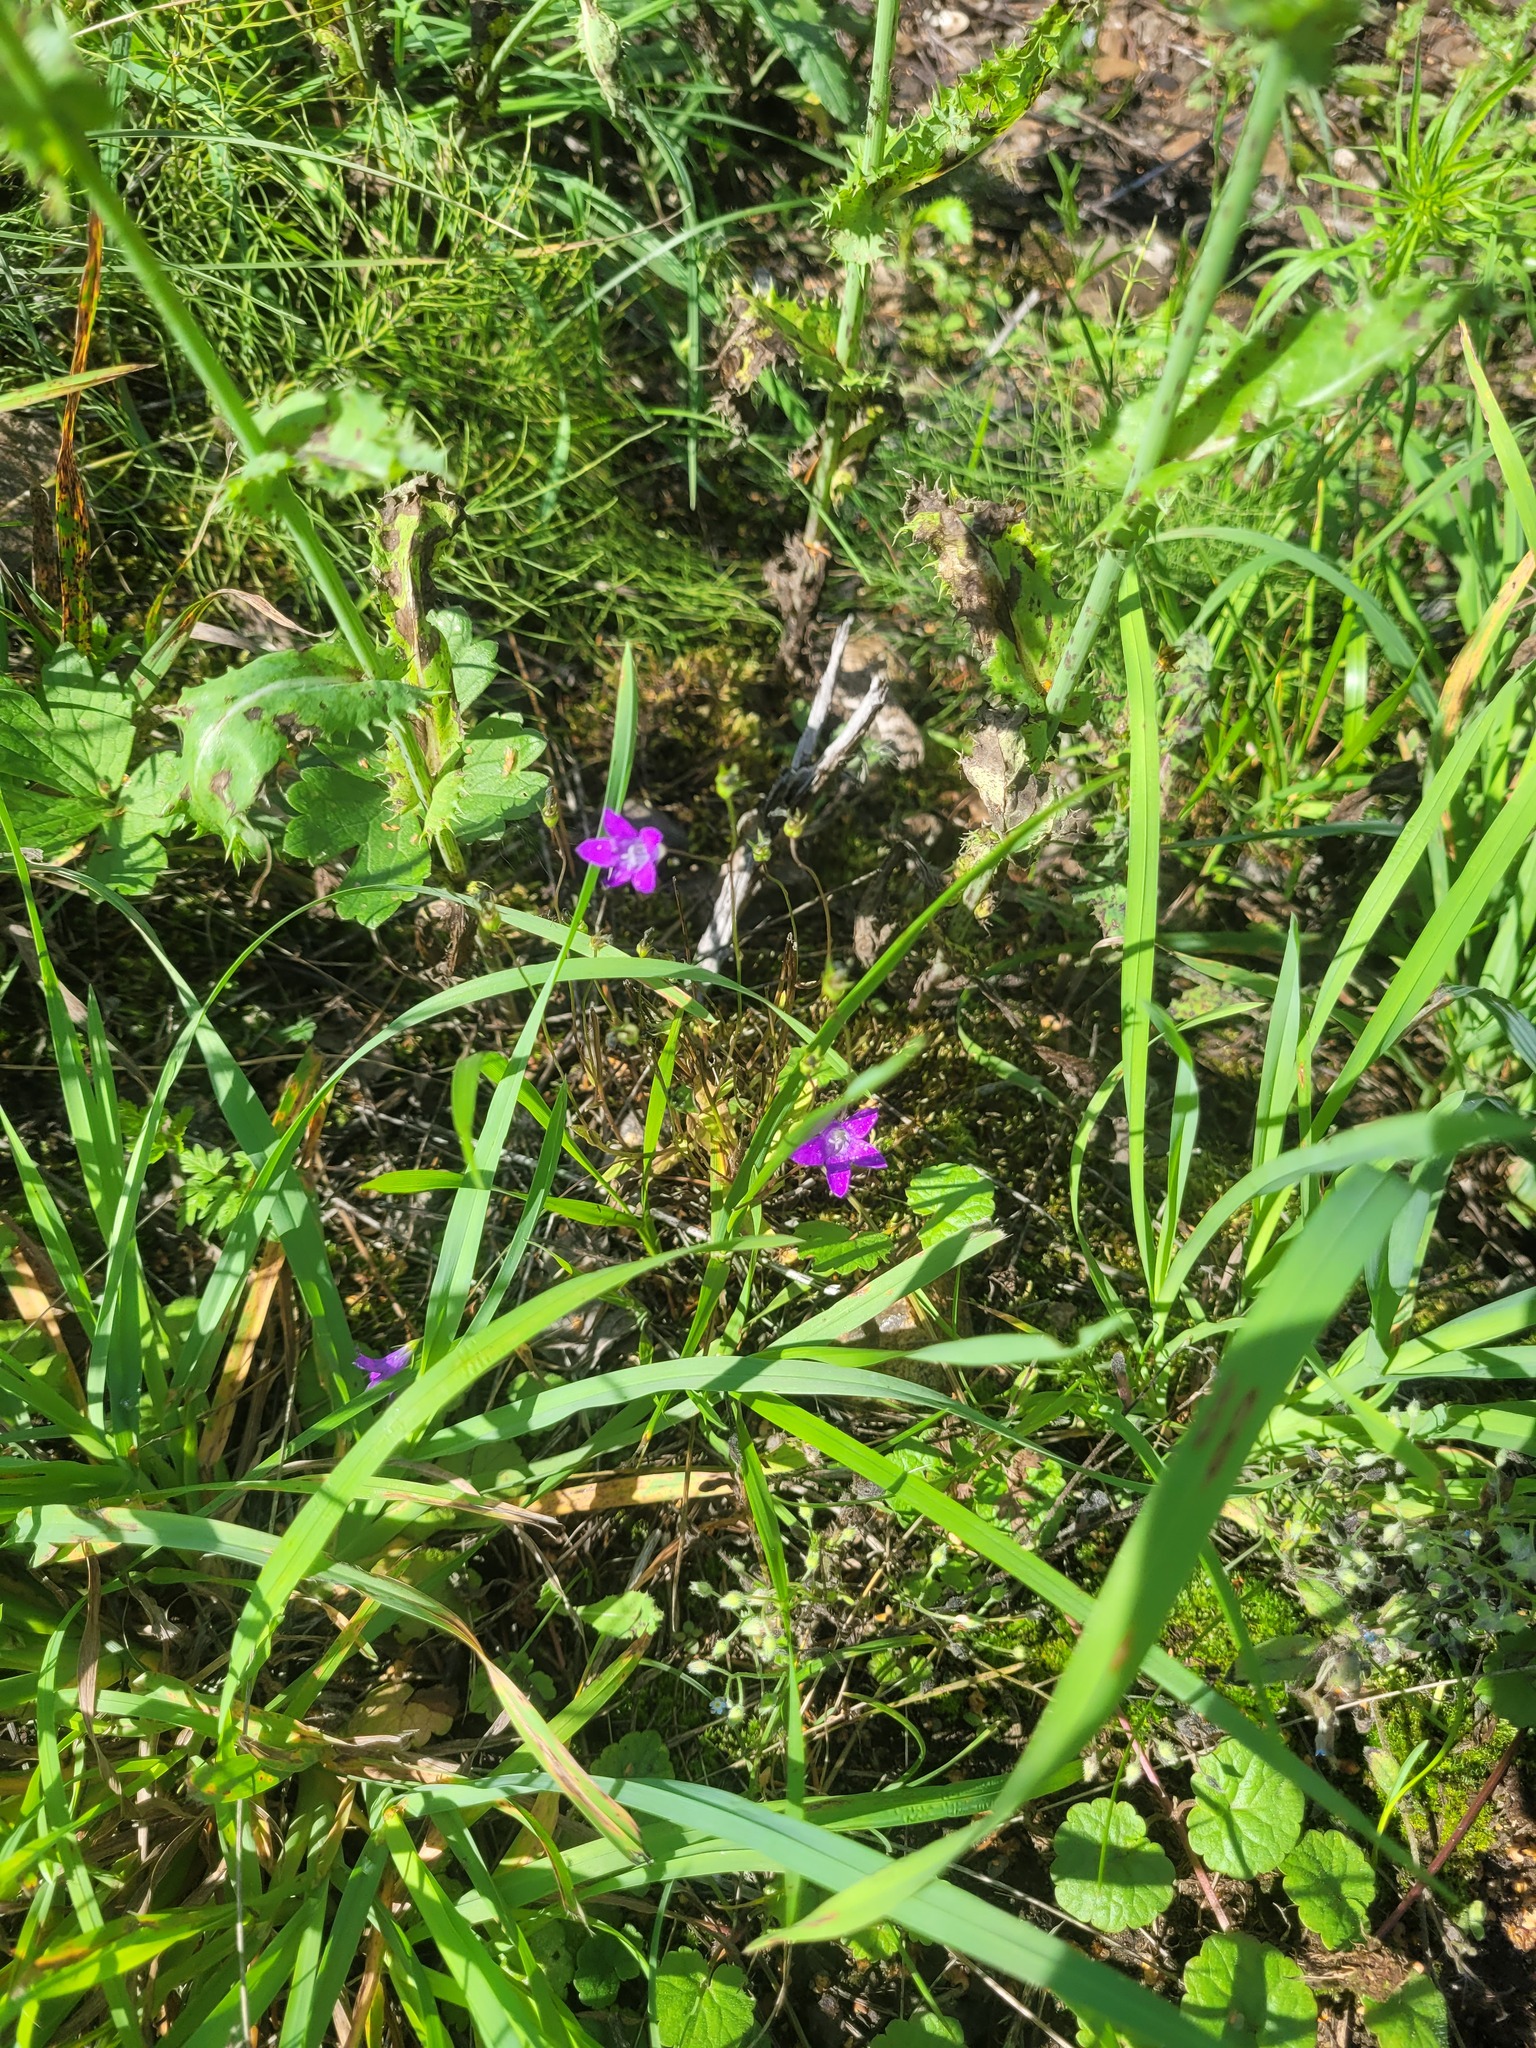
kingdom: Plantae
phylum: Tracheophyta
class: Magnoliopsida
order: Asterales
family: Campanulaceae
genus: Campanula
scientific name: Campanula patula
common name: Spreading bellflower
